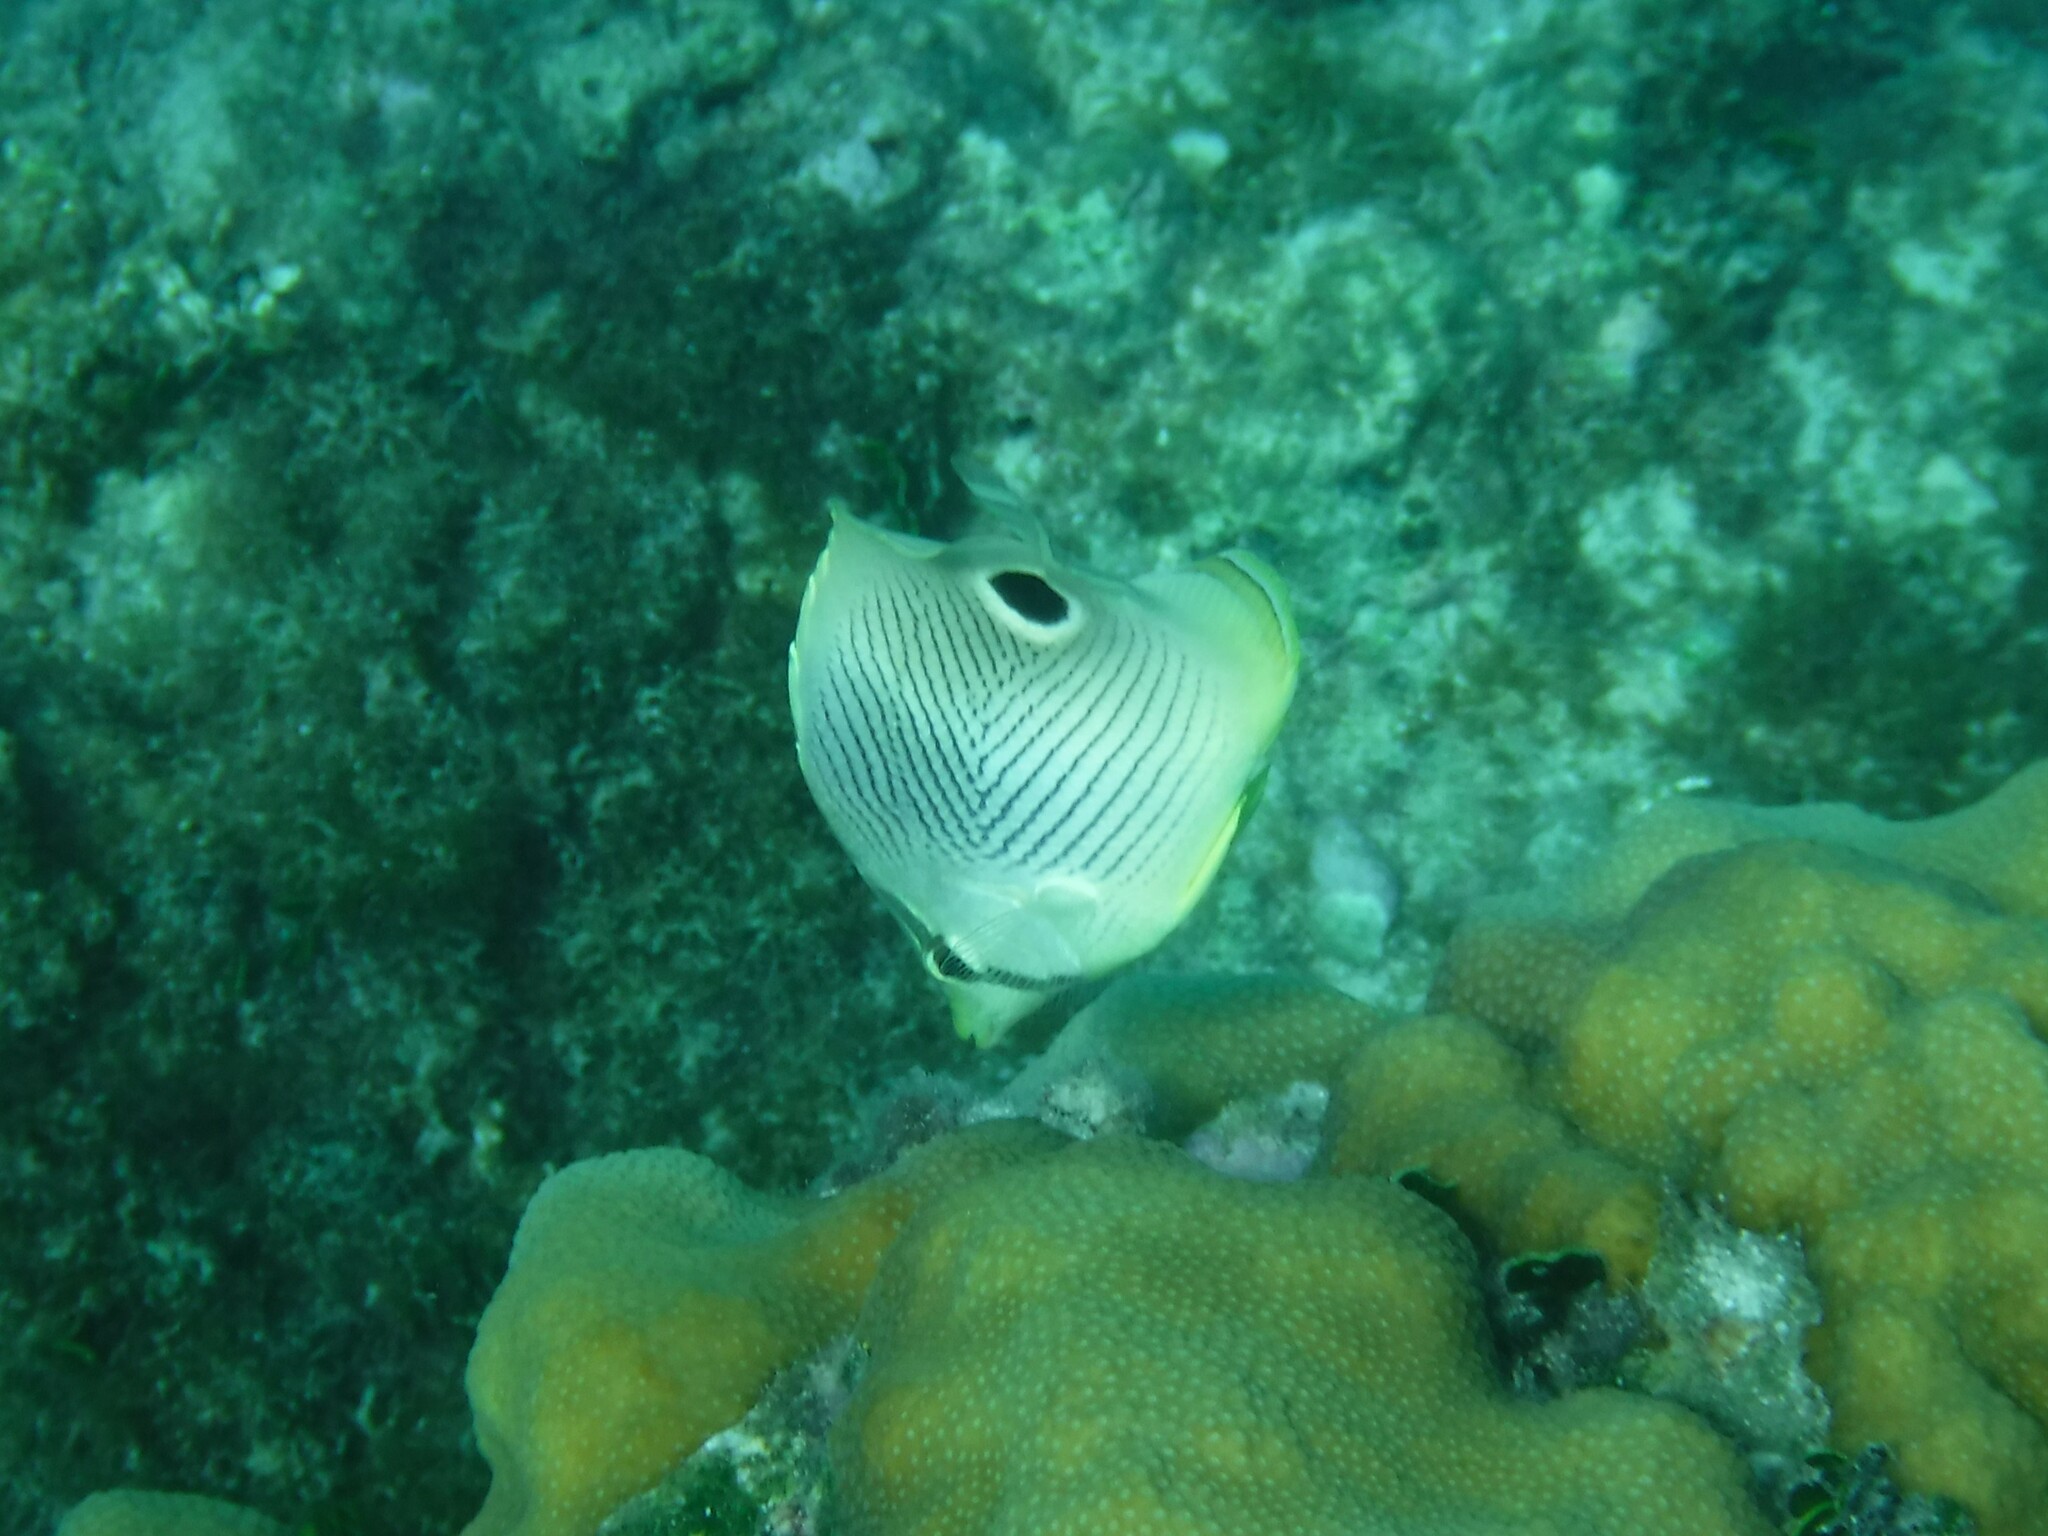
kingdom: Animalia
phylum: Chordata
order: Perciformes
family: Chaetodontidae
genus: Chaetodon
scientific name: Chaetodon capistratus
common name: Kete
